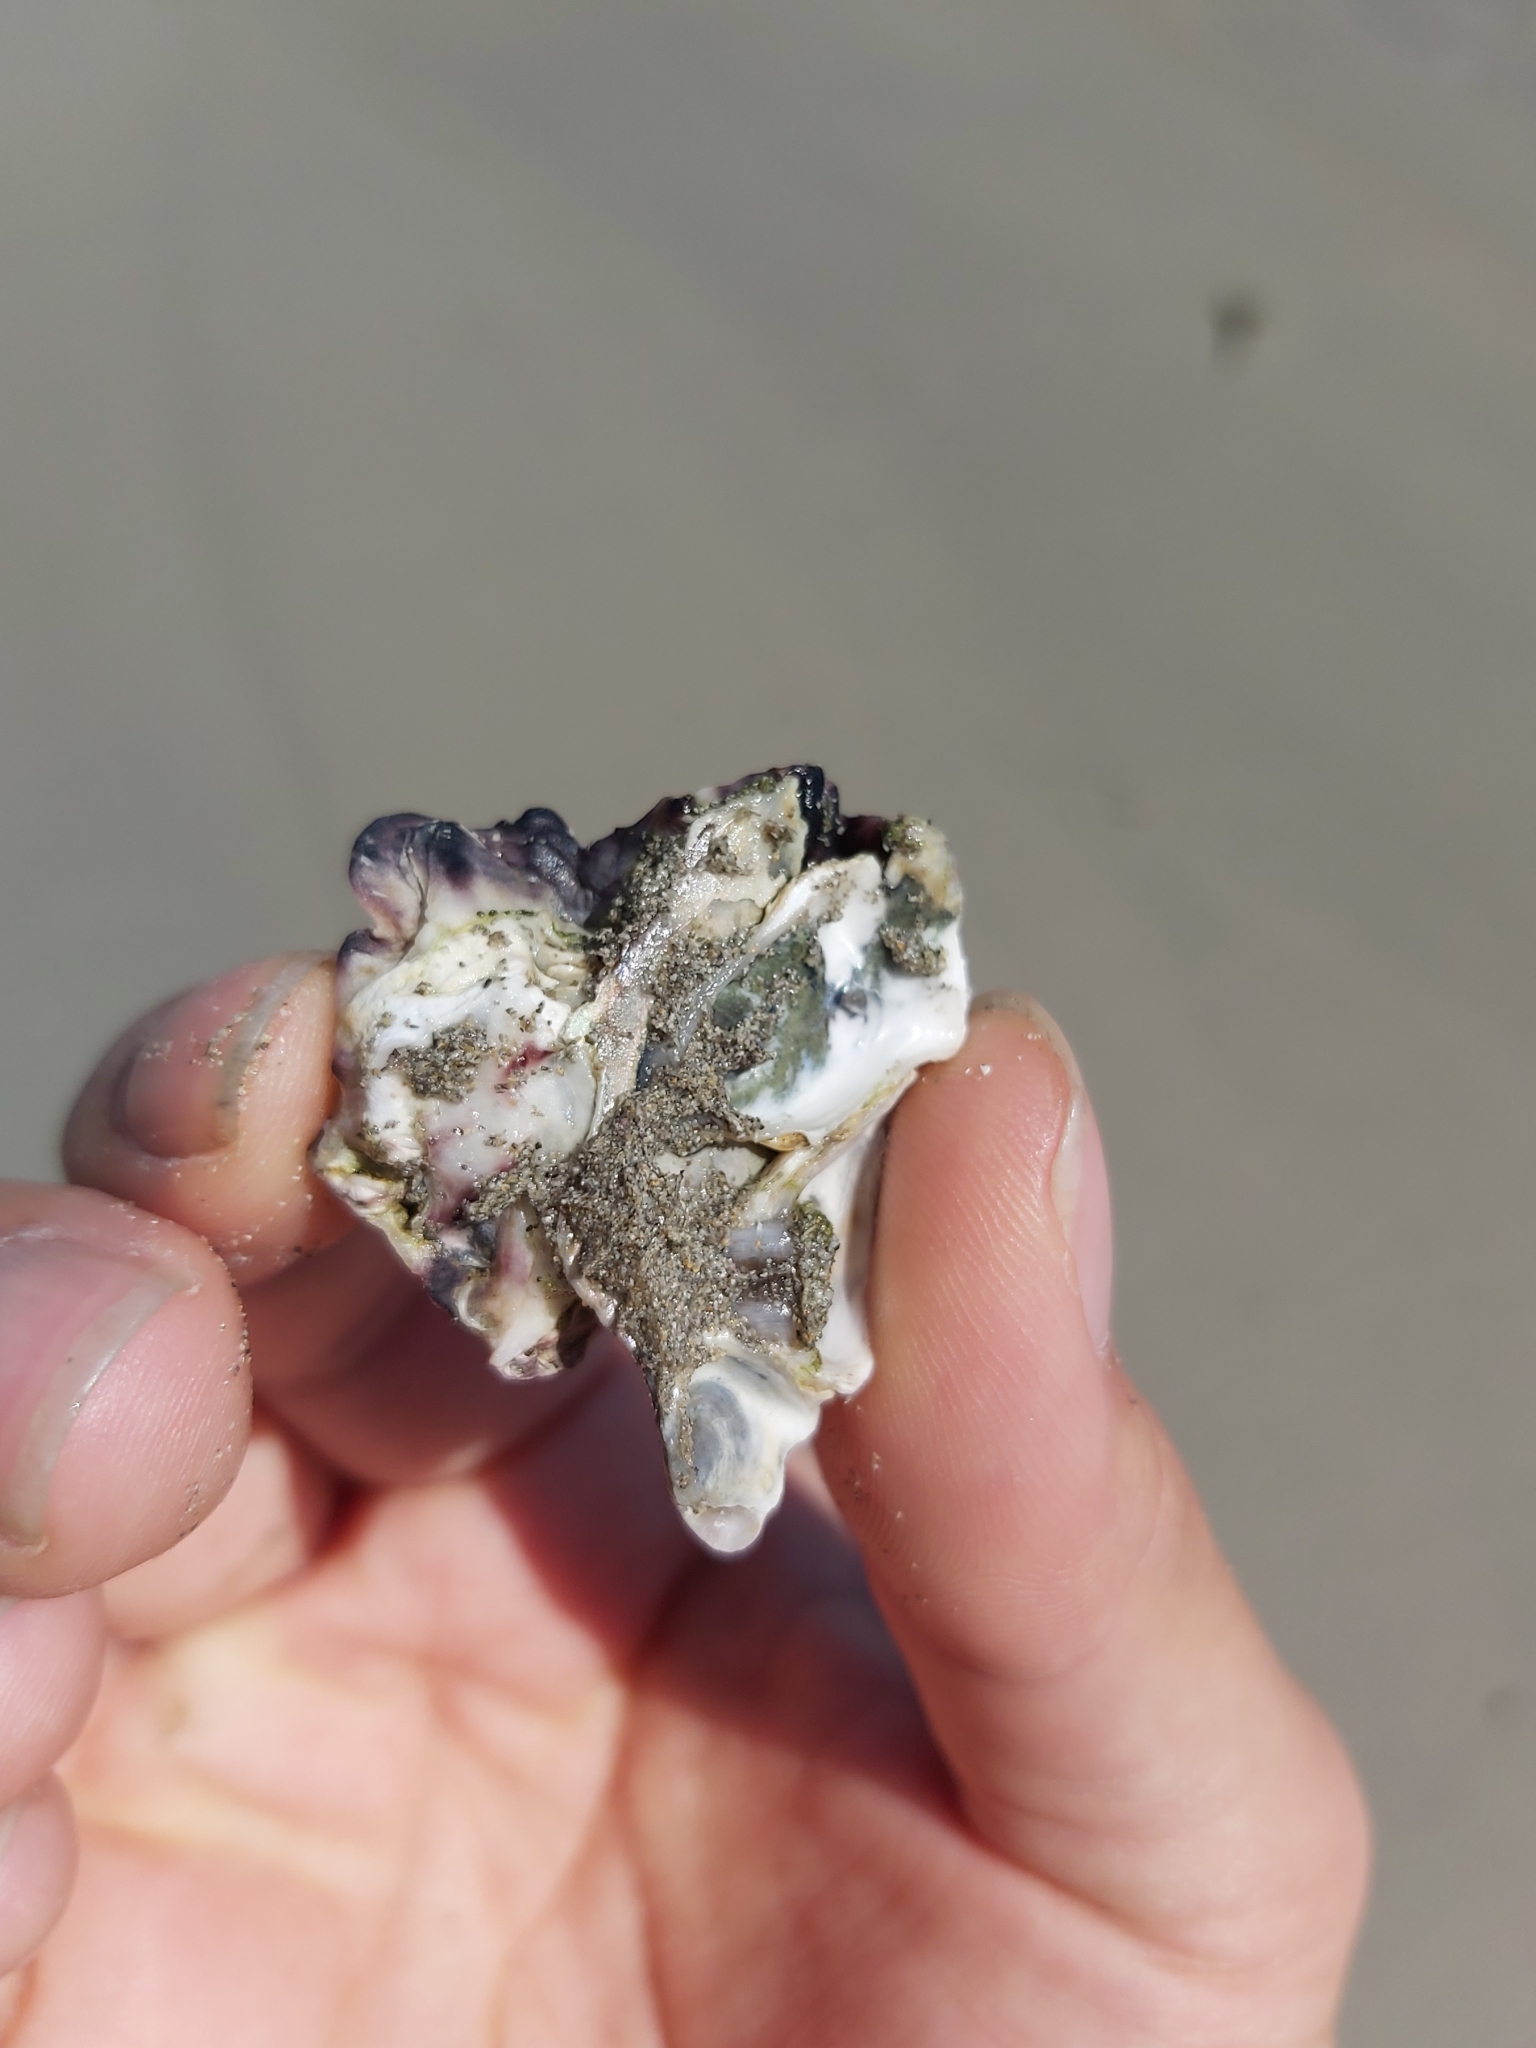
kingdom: Animalia
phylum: Mollusca
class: Bivalvia
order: Ostreida
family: Ostreidae
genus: Saccostrea
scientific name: Saccostrea glomerata
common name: Sydney cupped oyster
